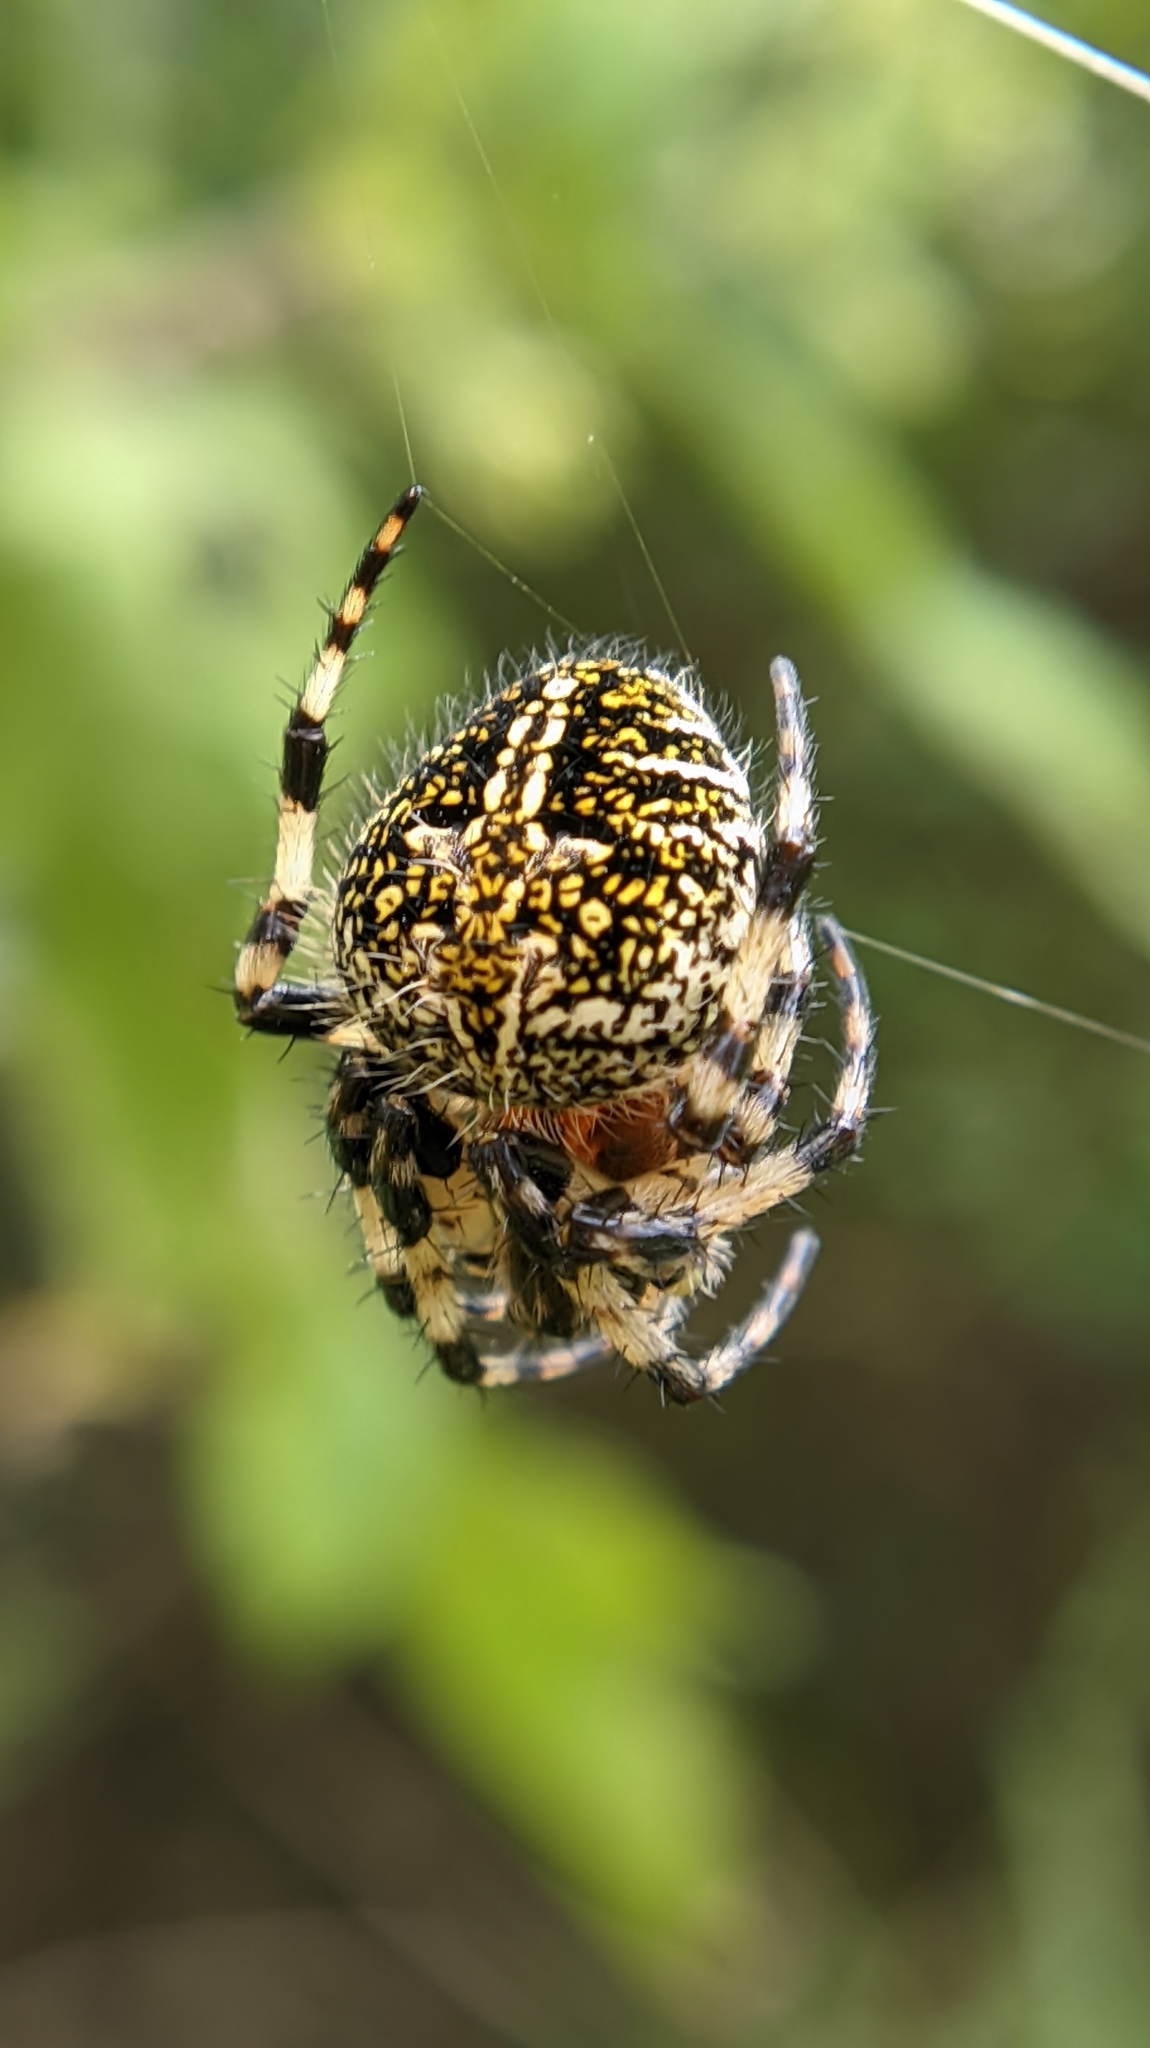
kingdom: Animalia
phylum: Arthropoda
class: Arachnida
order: Araneae
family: Araneidae
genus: Neoscona
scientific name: Neoscona orizabensis
